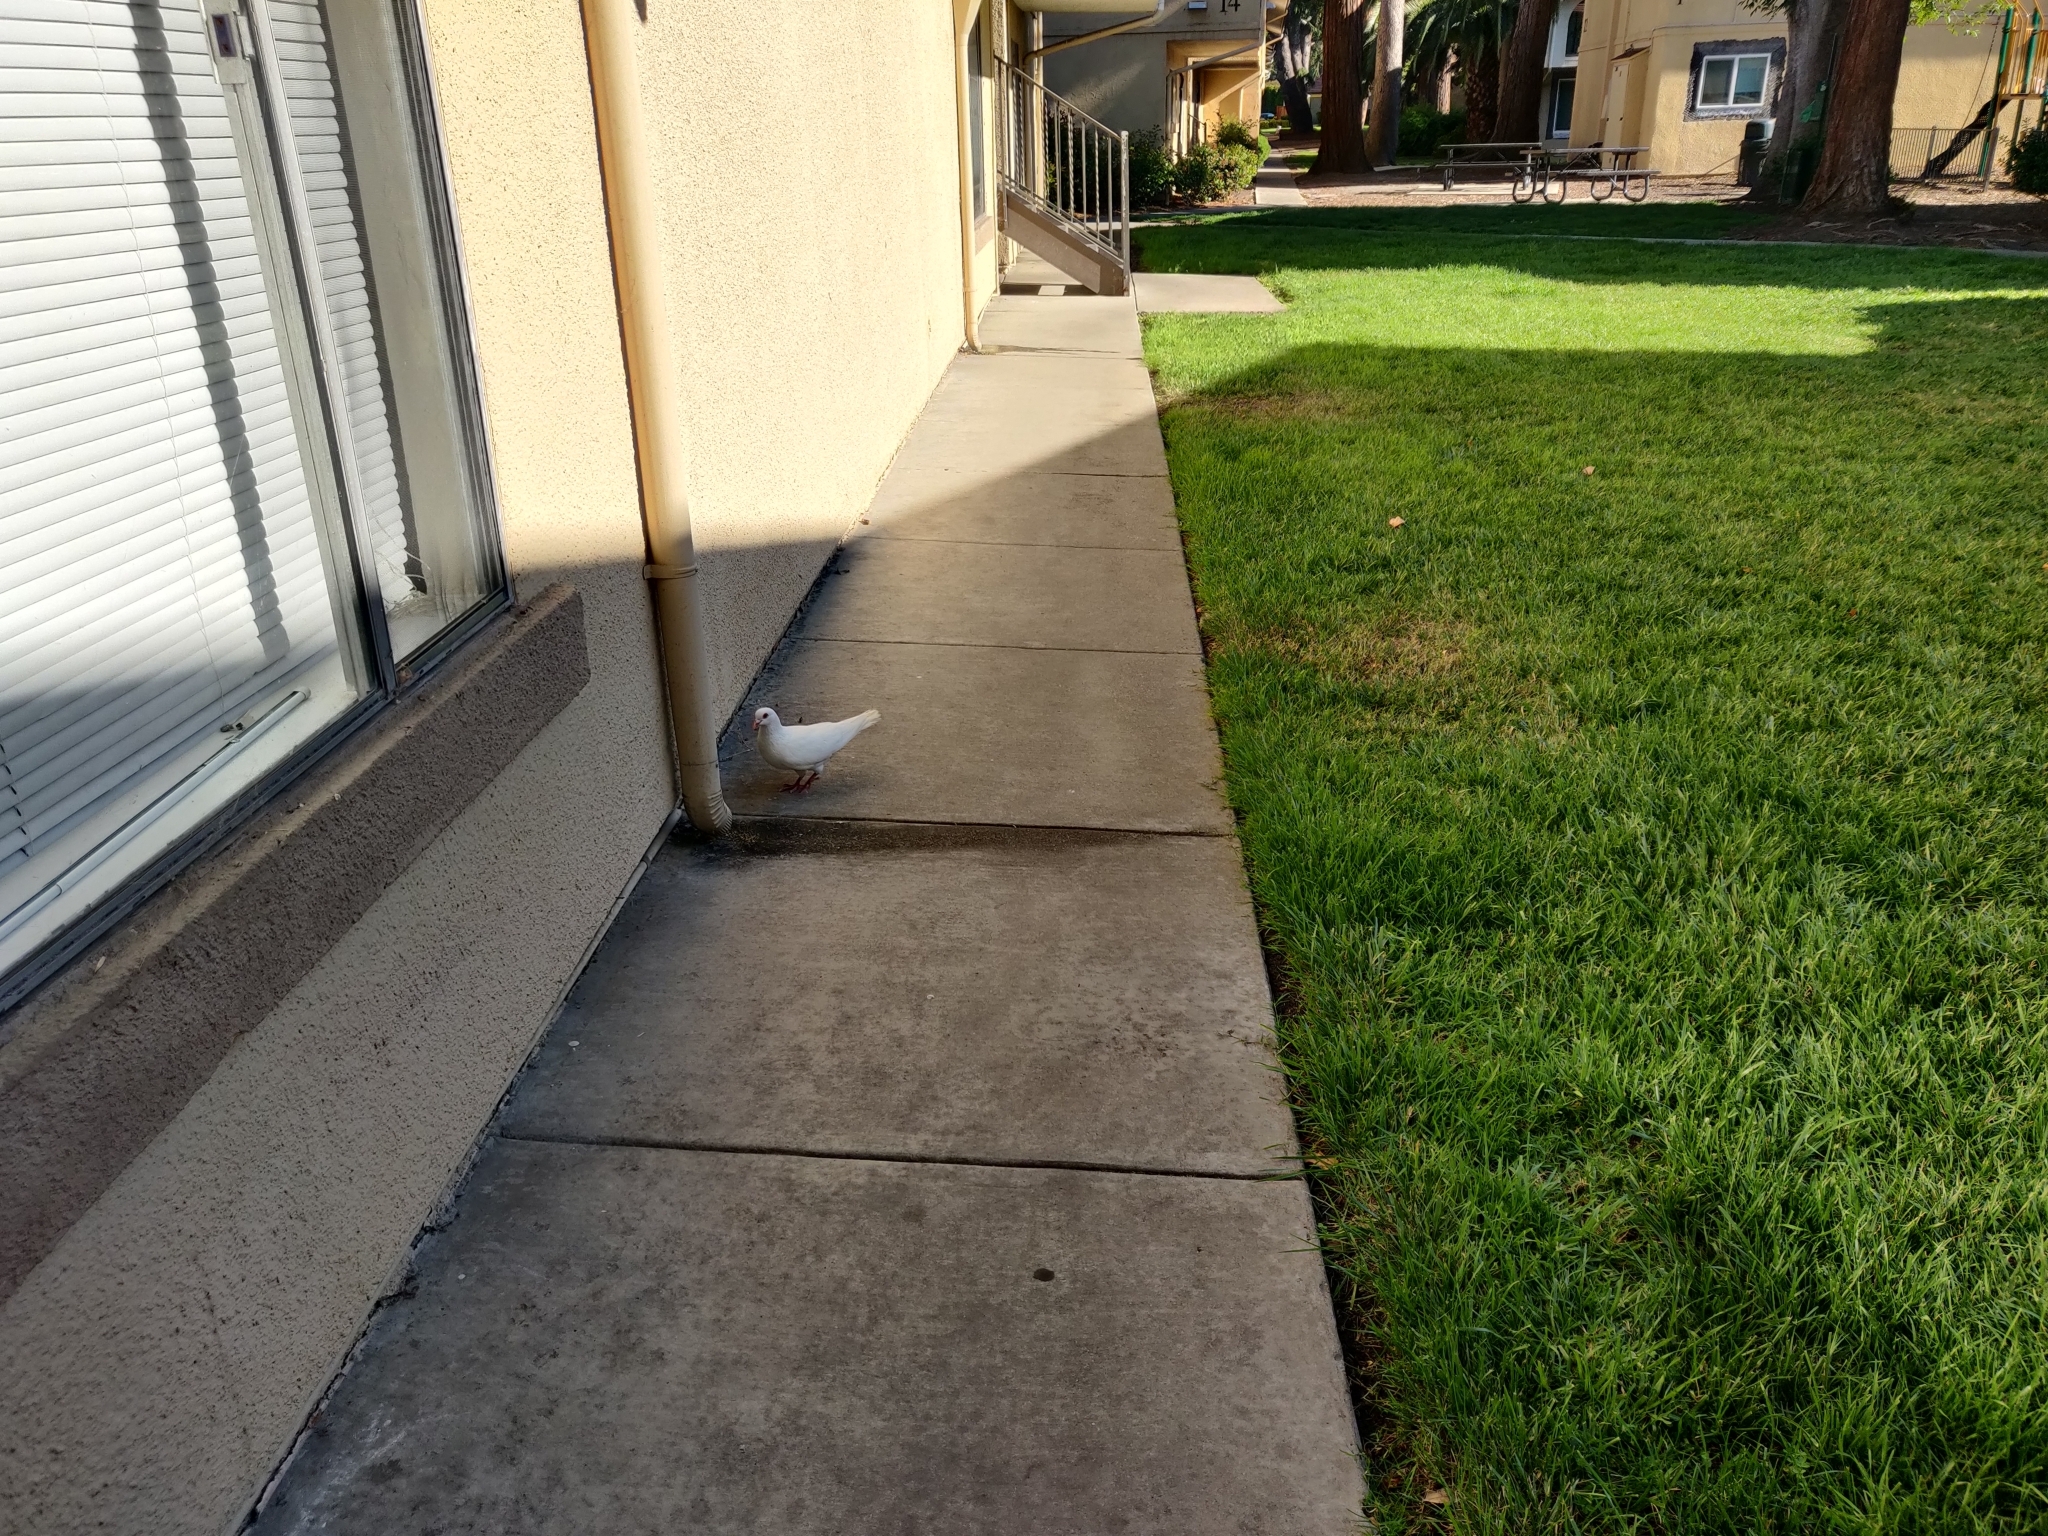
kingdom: Animalia
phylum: Chordata
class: Aves
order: Columbiformes
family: Columbidae
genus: Columba
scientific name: Columba livia
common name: Rock pigeon
